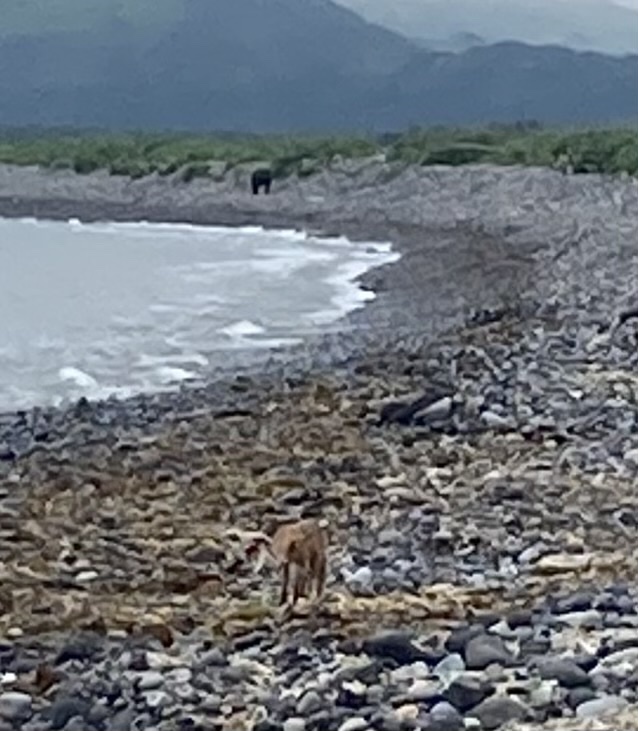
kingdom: Animalia
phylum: Chordata
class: Mammalia
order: Carnivora
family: Canidae
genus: Vulpes
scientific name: Vulpes vulpes
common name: Red fox
